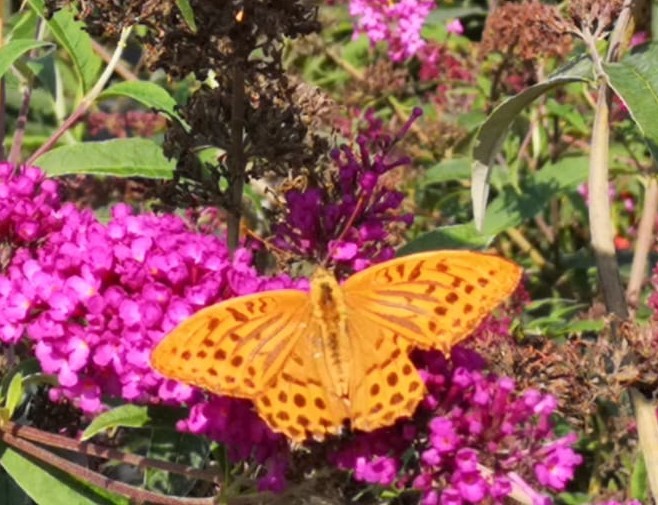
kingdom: Animalia
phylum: Arthropoda
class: Insecta
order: Lepidoptera
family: Nymphalidae
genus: Argynnis
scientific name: Argynnis paphia
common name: Silver-washed fritillary
